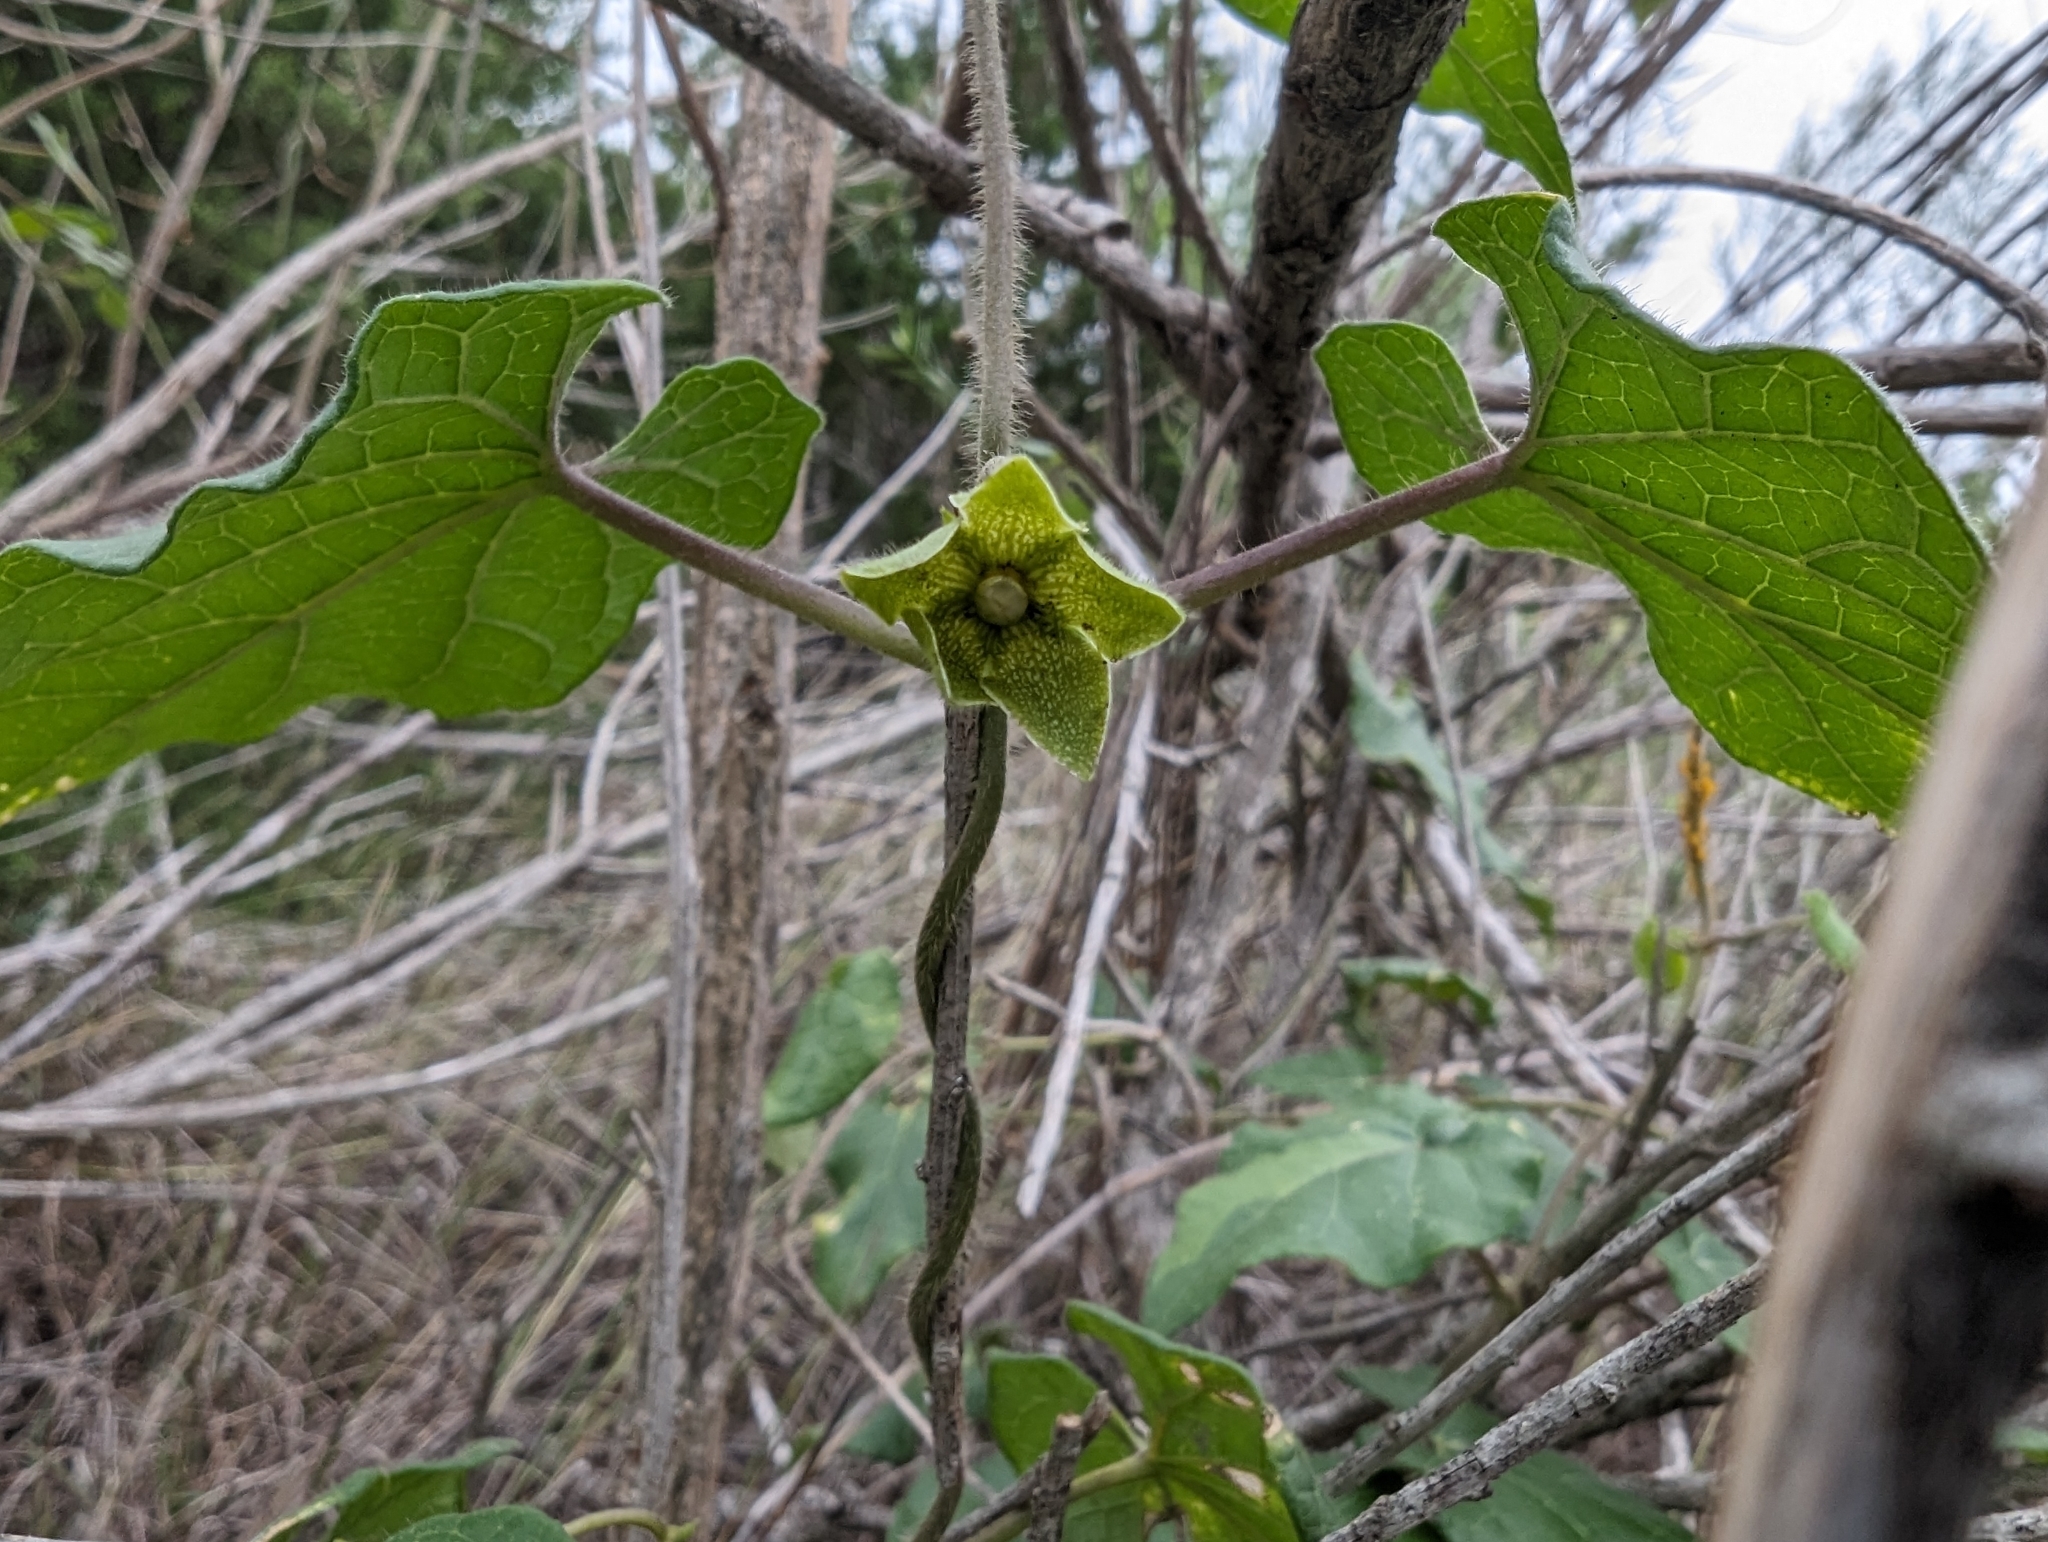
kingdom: Plantae
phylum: Tracheophyta
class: Magnoliopsida
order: Gentianales
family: Apocynaceae
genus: Dictyanthus
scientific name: Dictyanthus reticulatus
